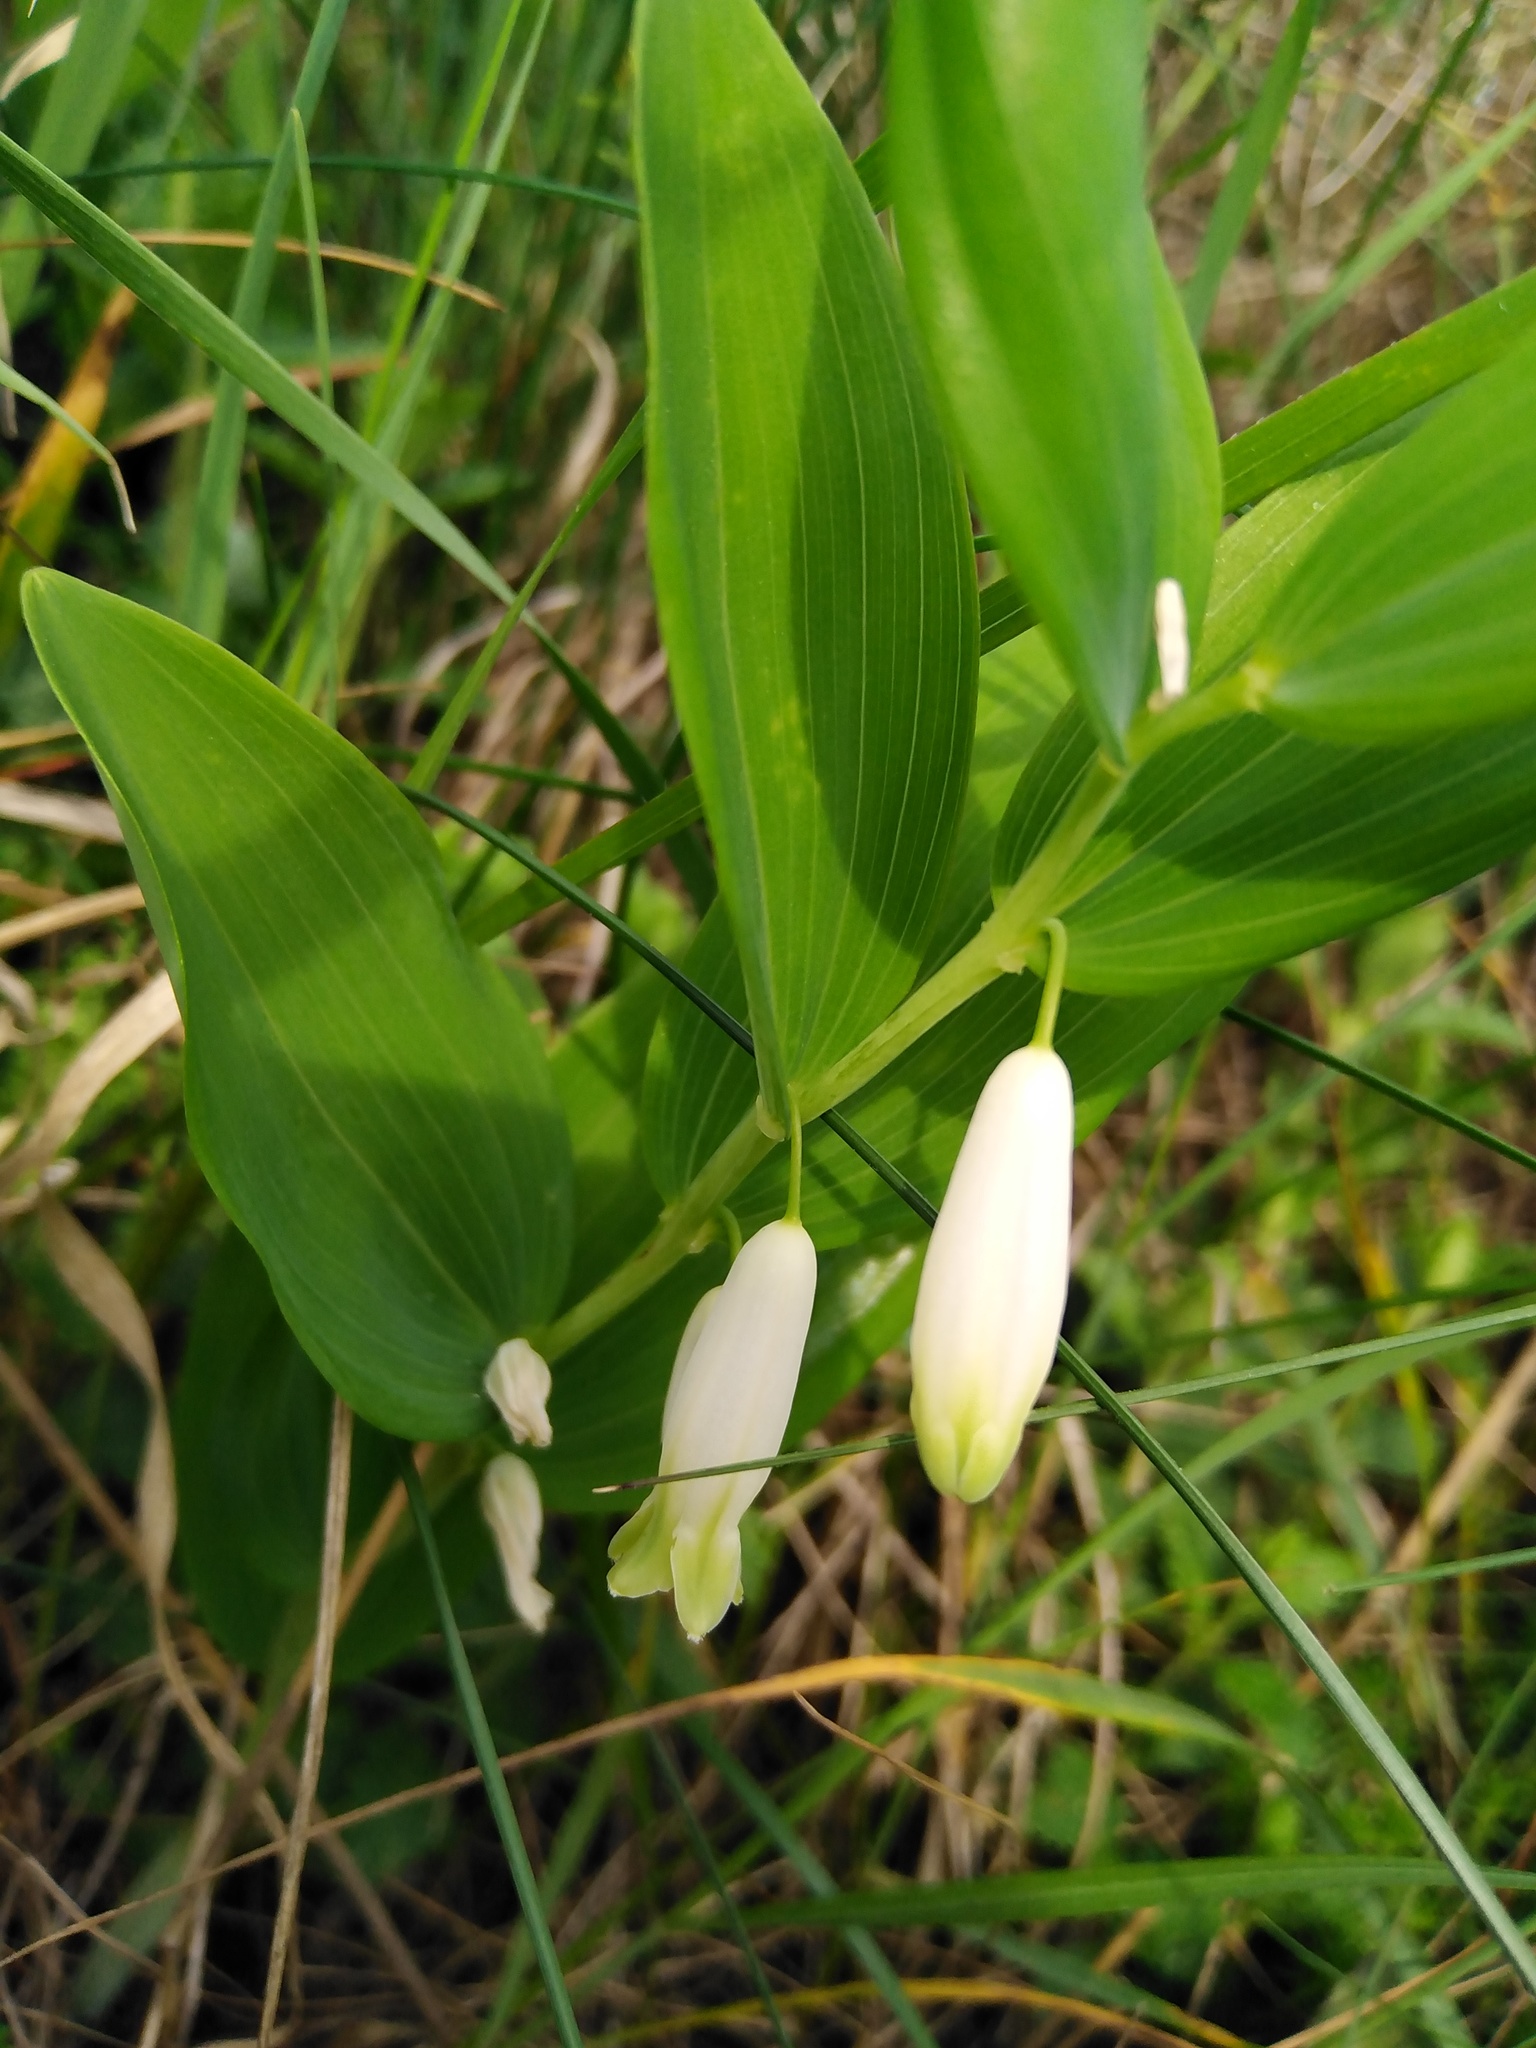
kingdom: Plantae
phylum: Tracheophyta
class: Liliopsida
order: Asparagales
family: Asparagaceae
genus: Polygonatum
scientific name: Polygonatum odoratum
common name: Angular solomon's-seal
